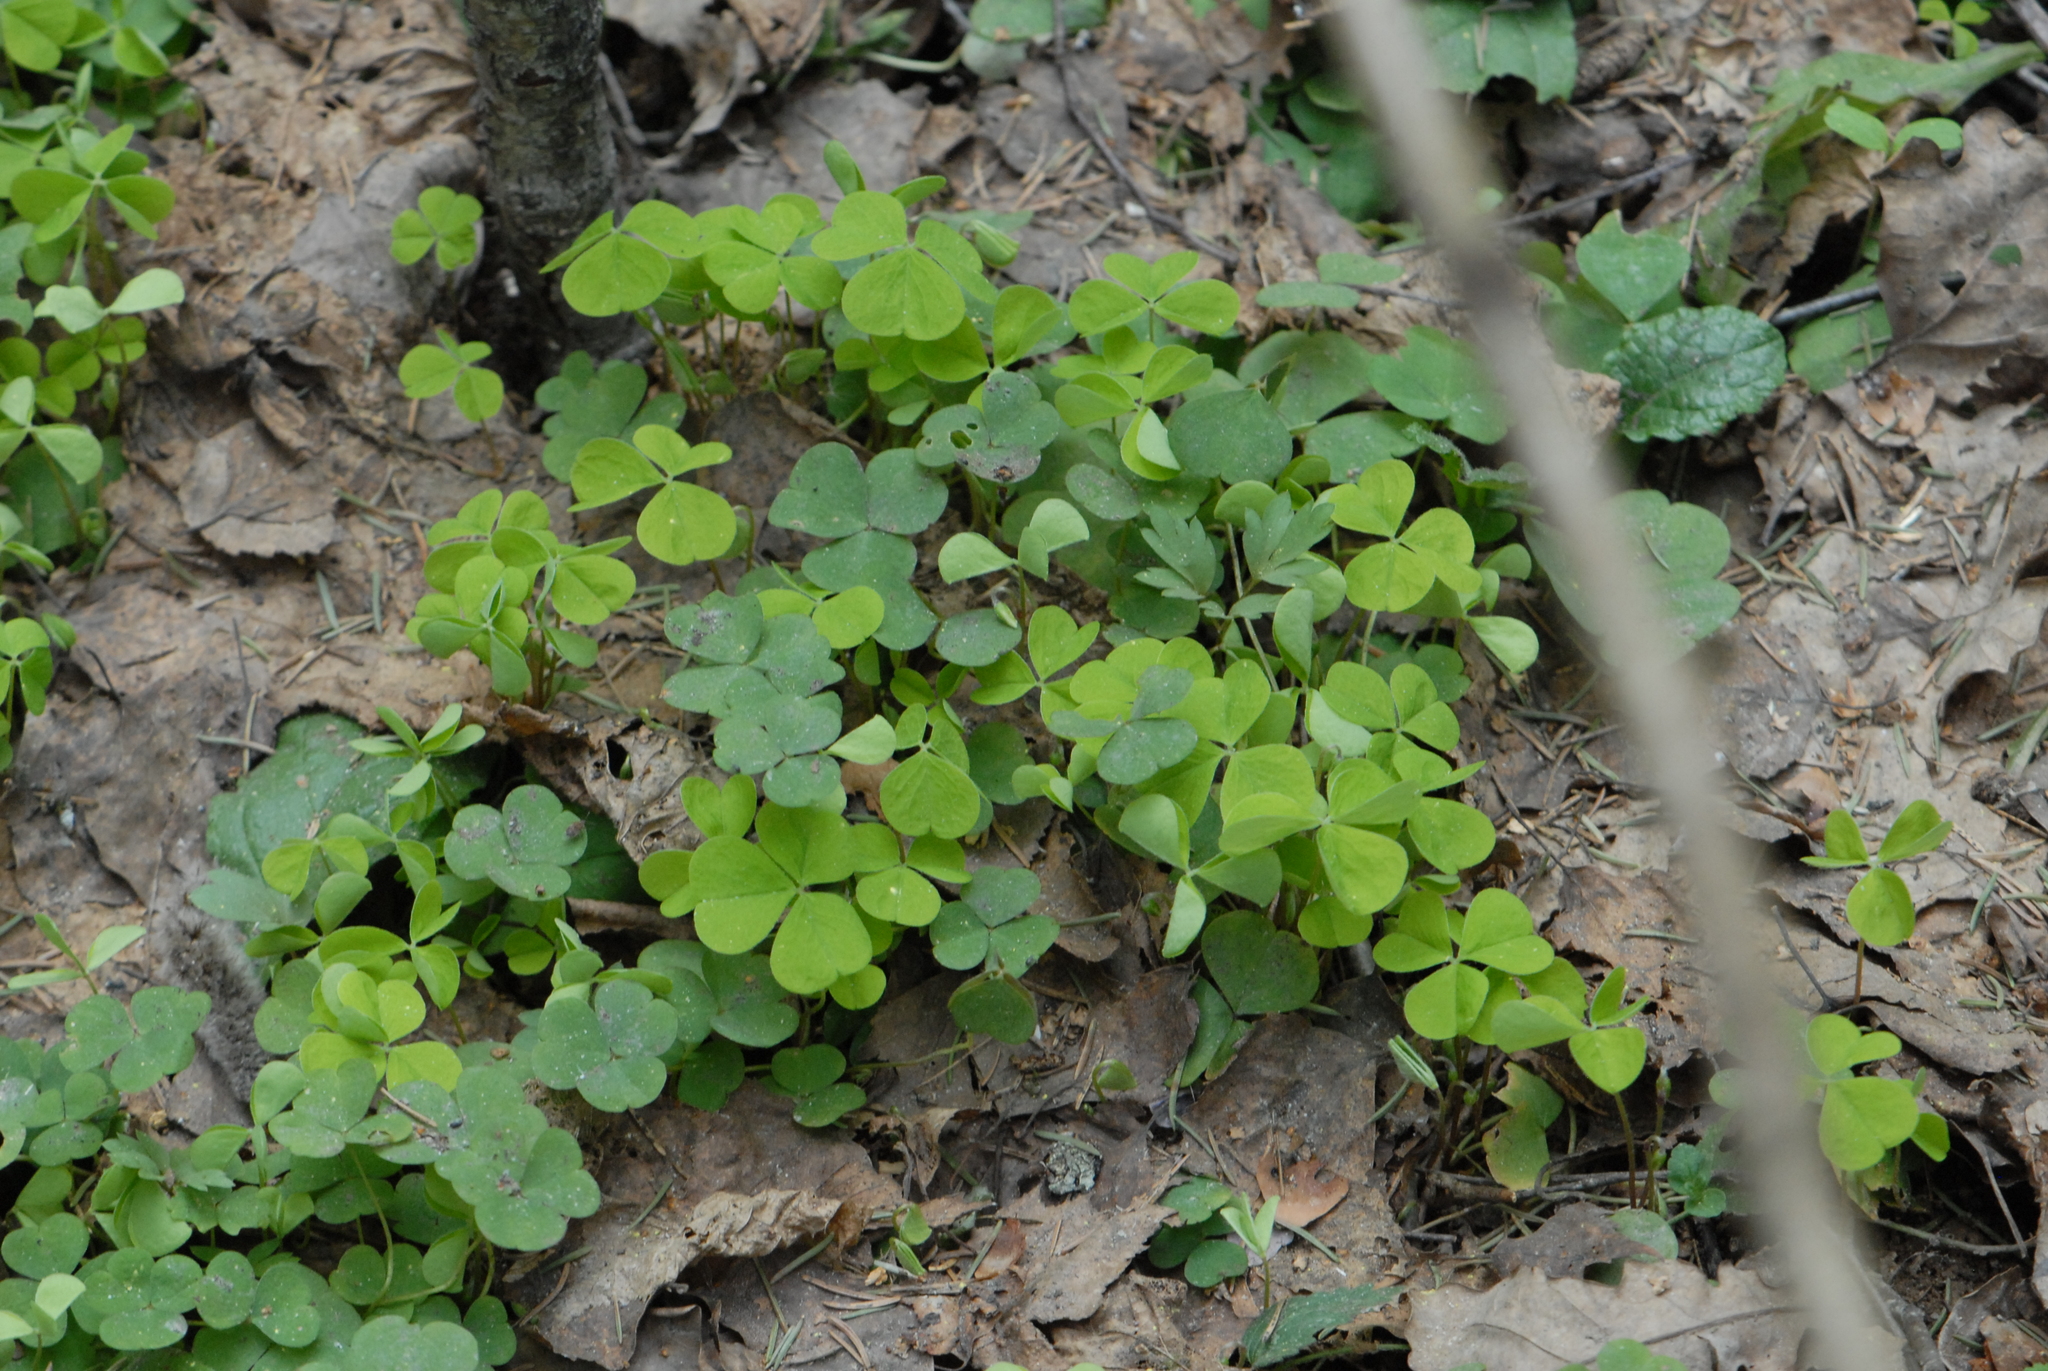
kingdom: Plantae
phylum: Tracheophyta
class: Magnoliopsida
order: Oxalidales
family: Oxalidaceae
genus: Oxalis
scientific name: Oxalis acetosella
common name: Wood-sorrel
